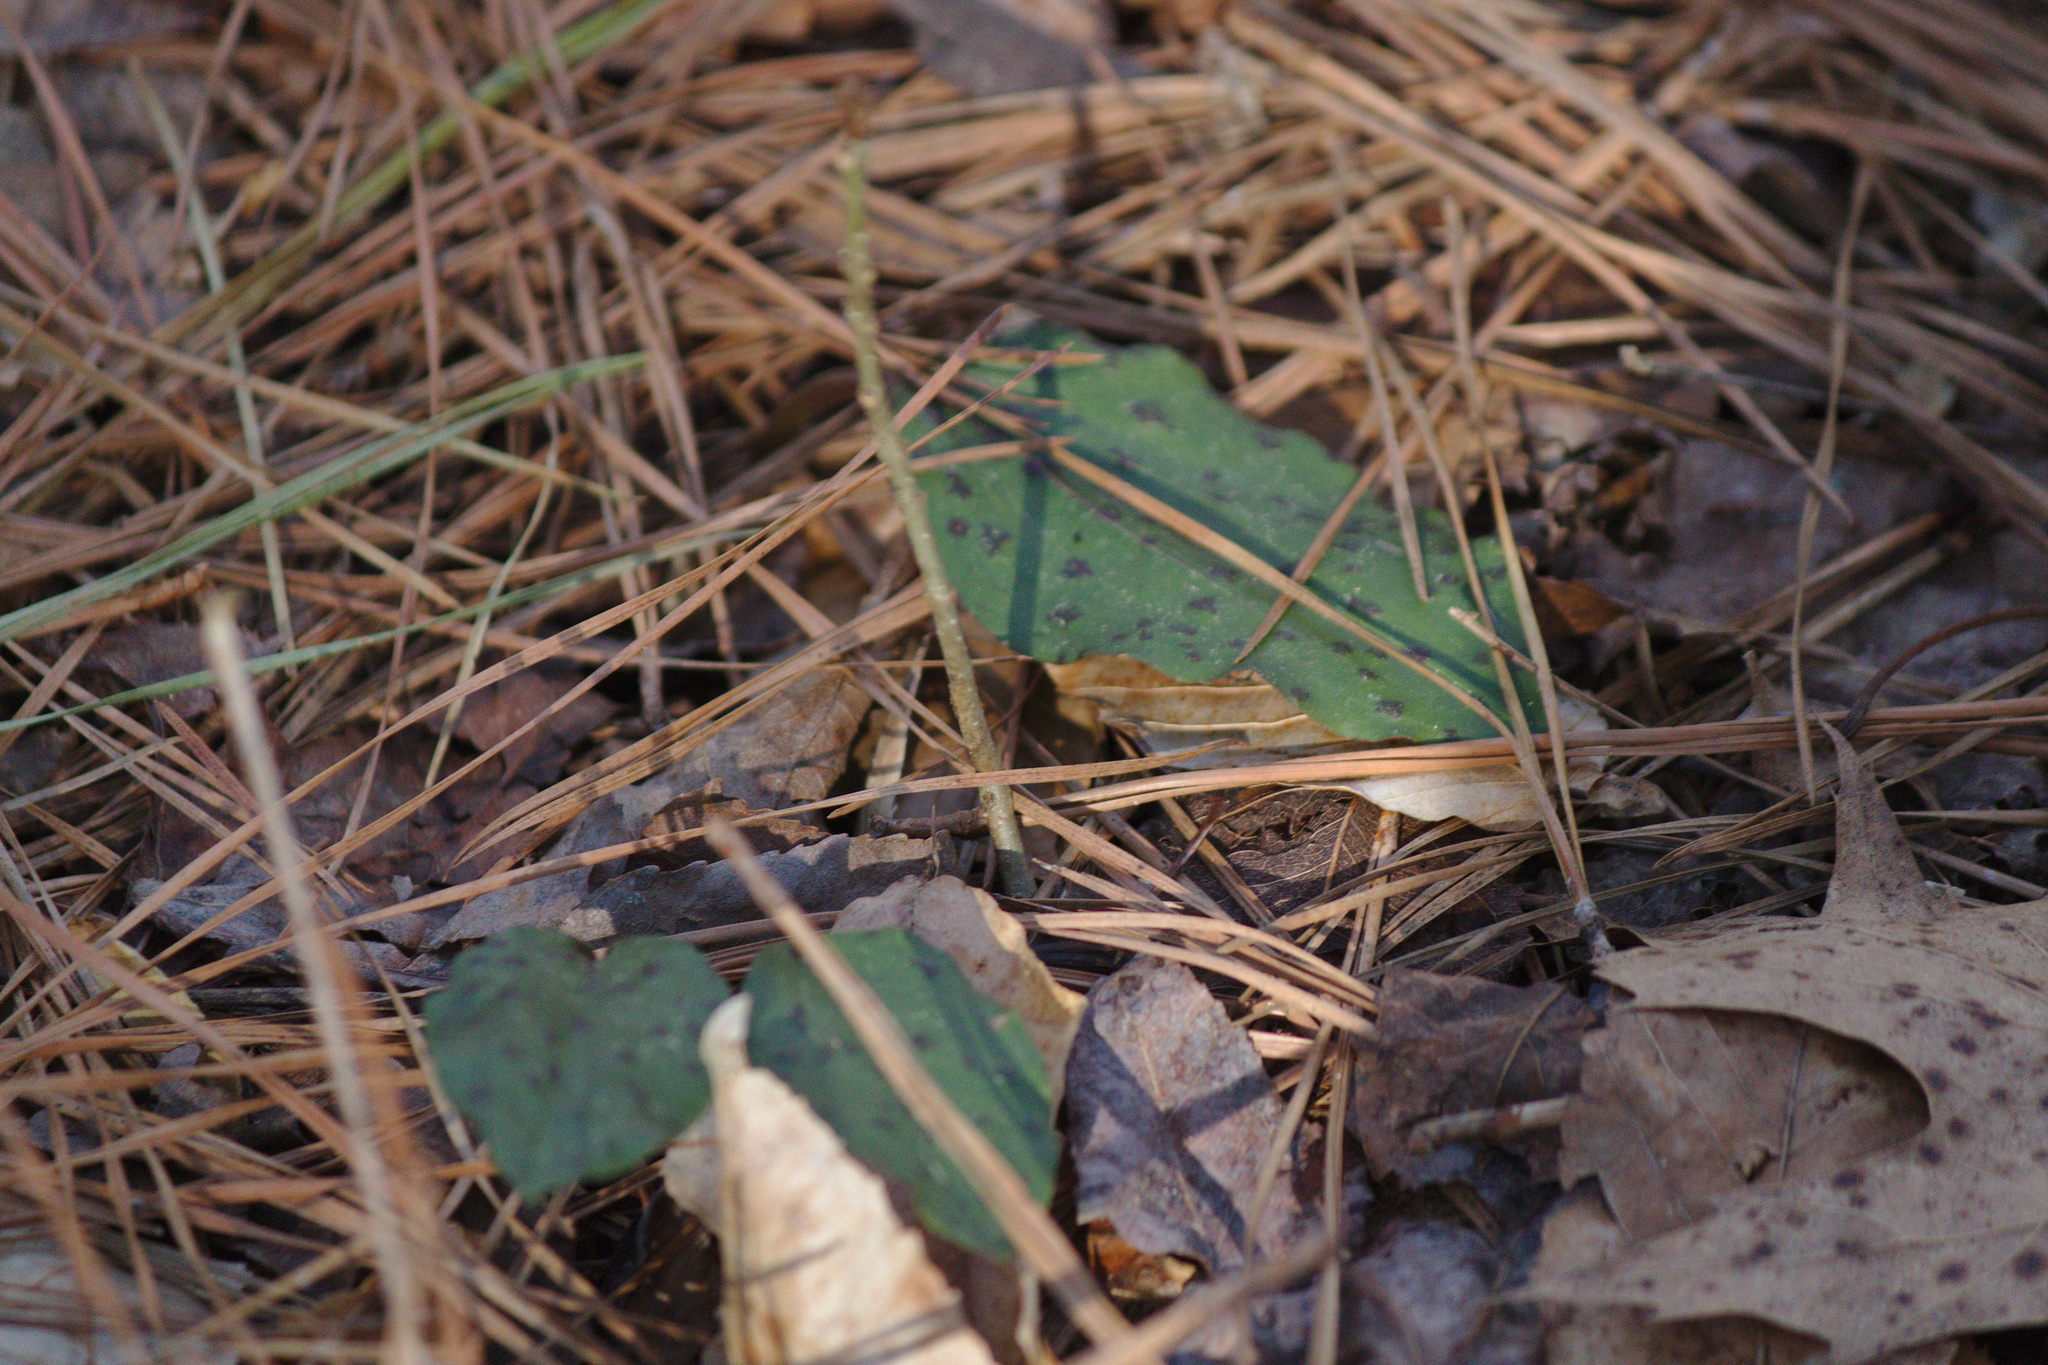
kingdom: Plantae
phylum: Tracheophyta
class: Liliopsida
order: Asparagales
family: Orchidaceae
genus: Tipularia
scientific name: Tipularia discolor
